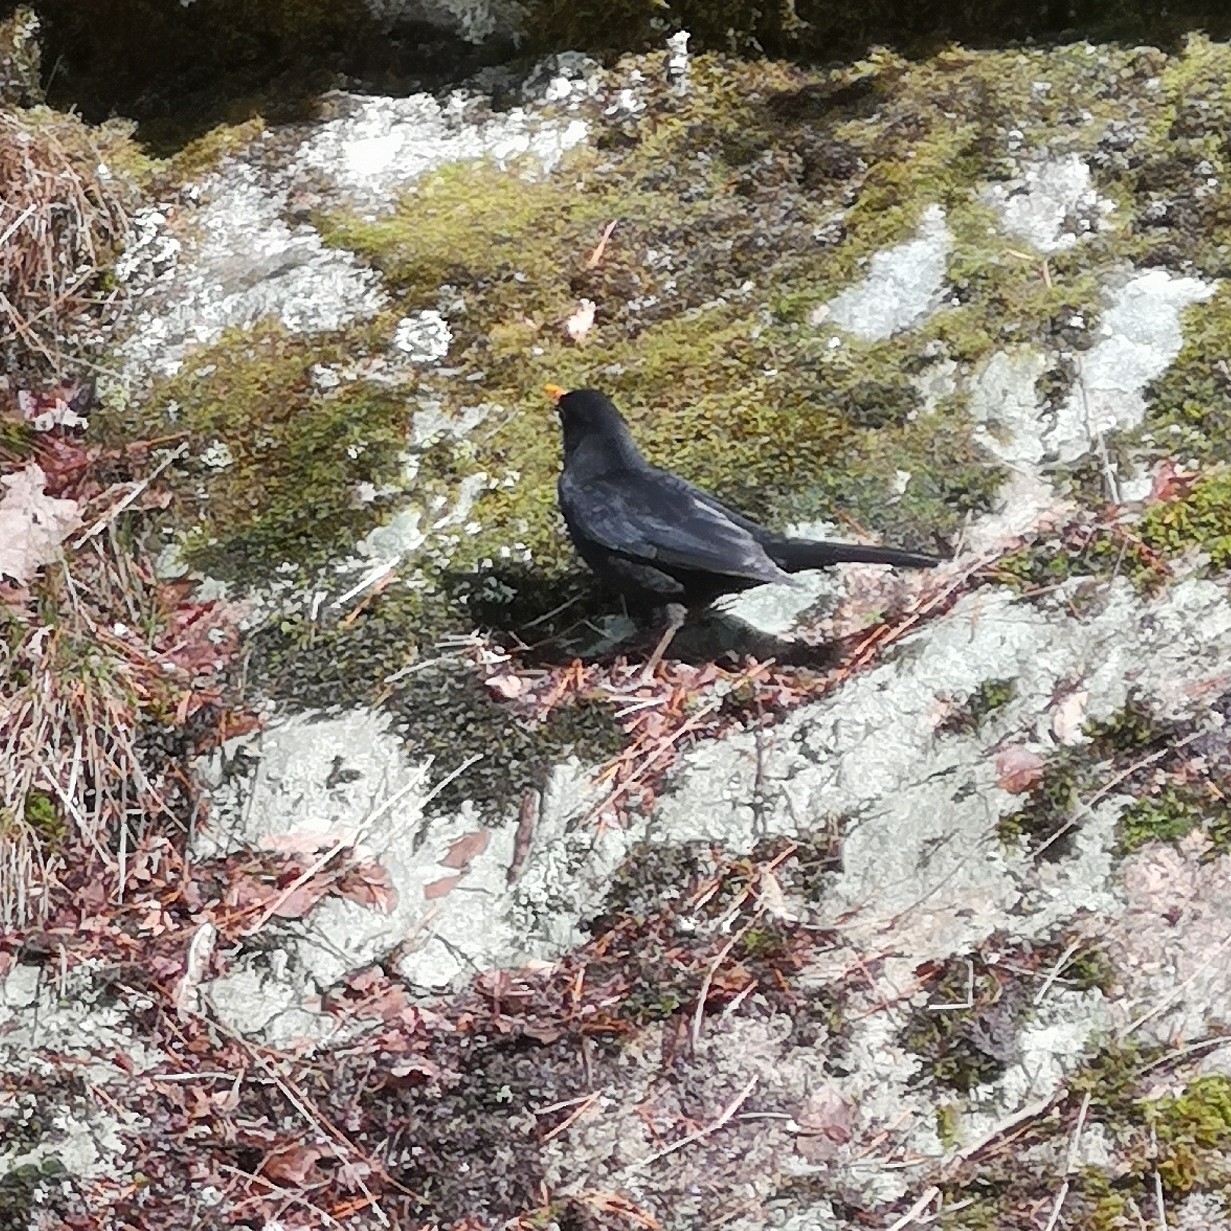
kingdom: Animalia
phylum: Chordata
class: Aves
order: Passeriformes
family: Turdidae
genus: Turdus
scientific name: Turdus merula
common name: Common blackbird
